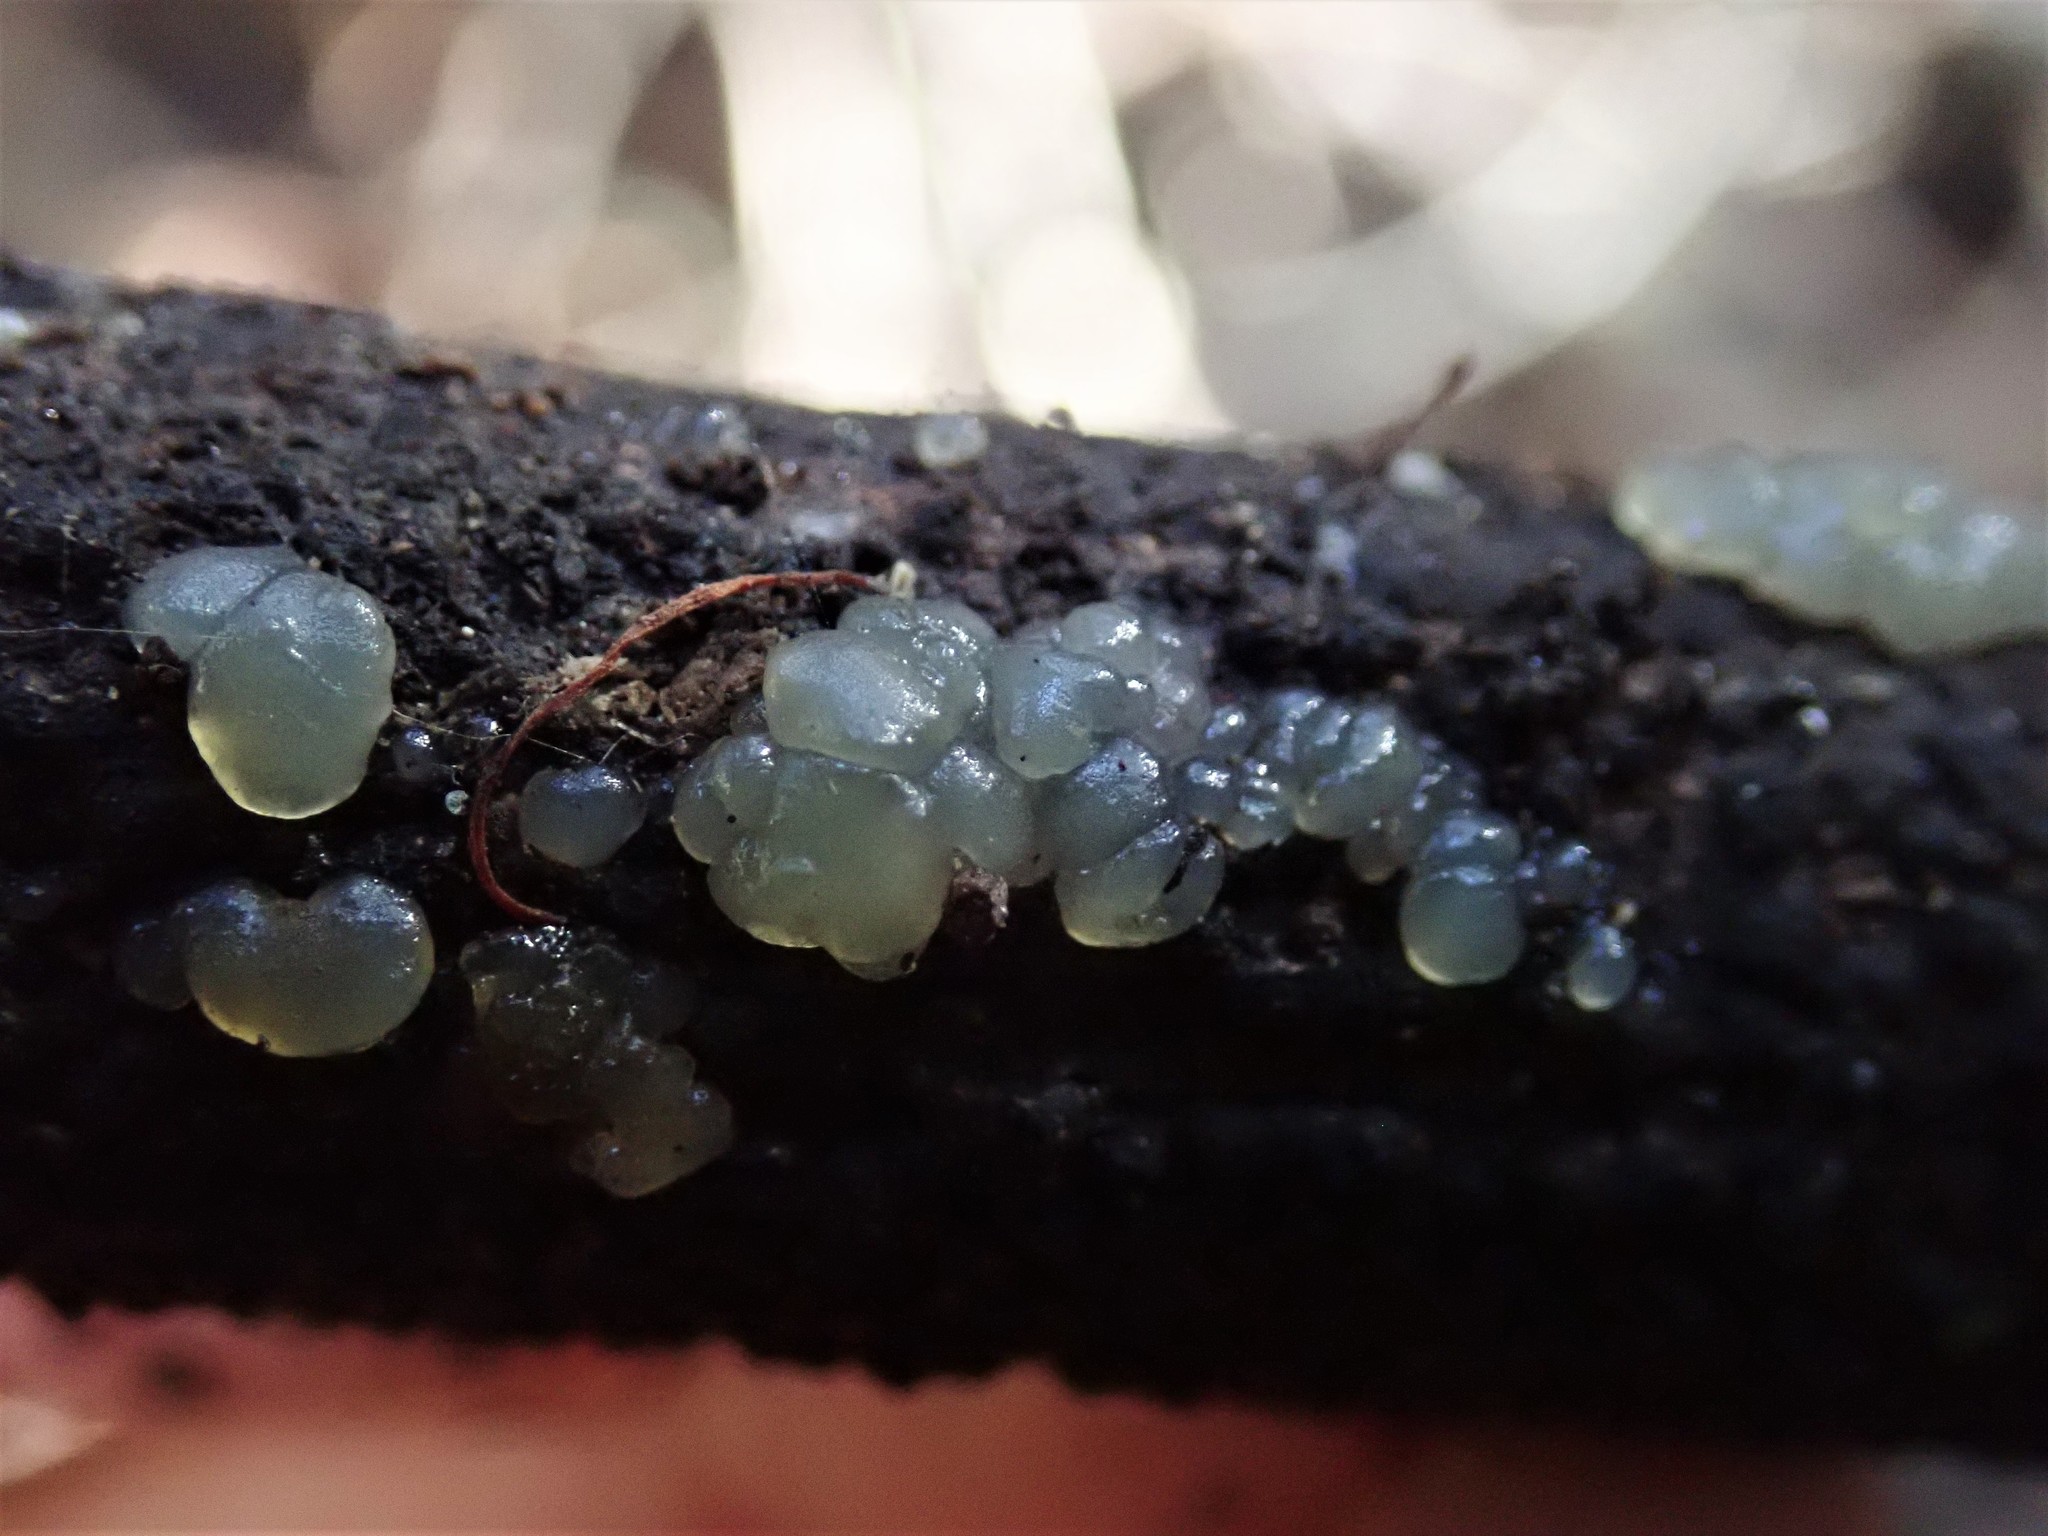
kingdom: Fungi
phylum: Basidiomycota
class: Agaricomycetes
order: Auriculariales
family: Hyaloriaceae
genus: Myxarium
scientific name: Myxarium nucleatum
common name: Crystal brain fungus
